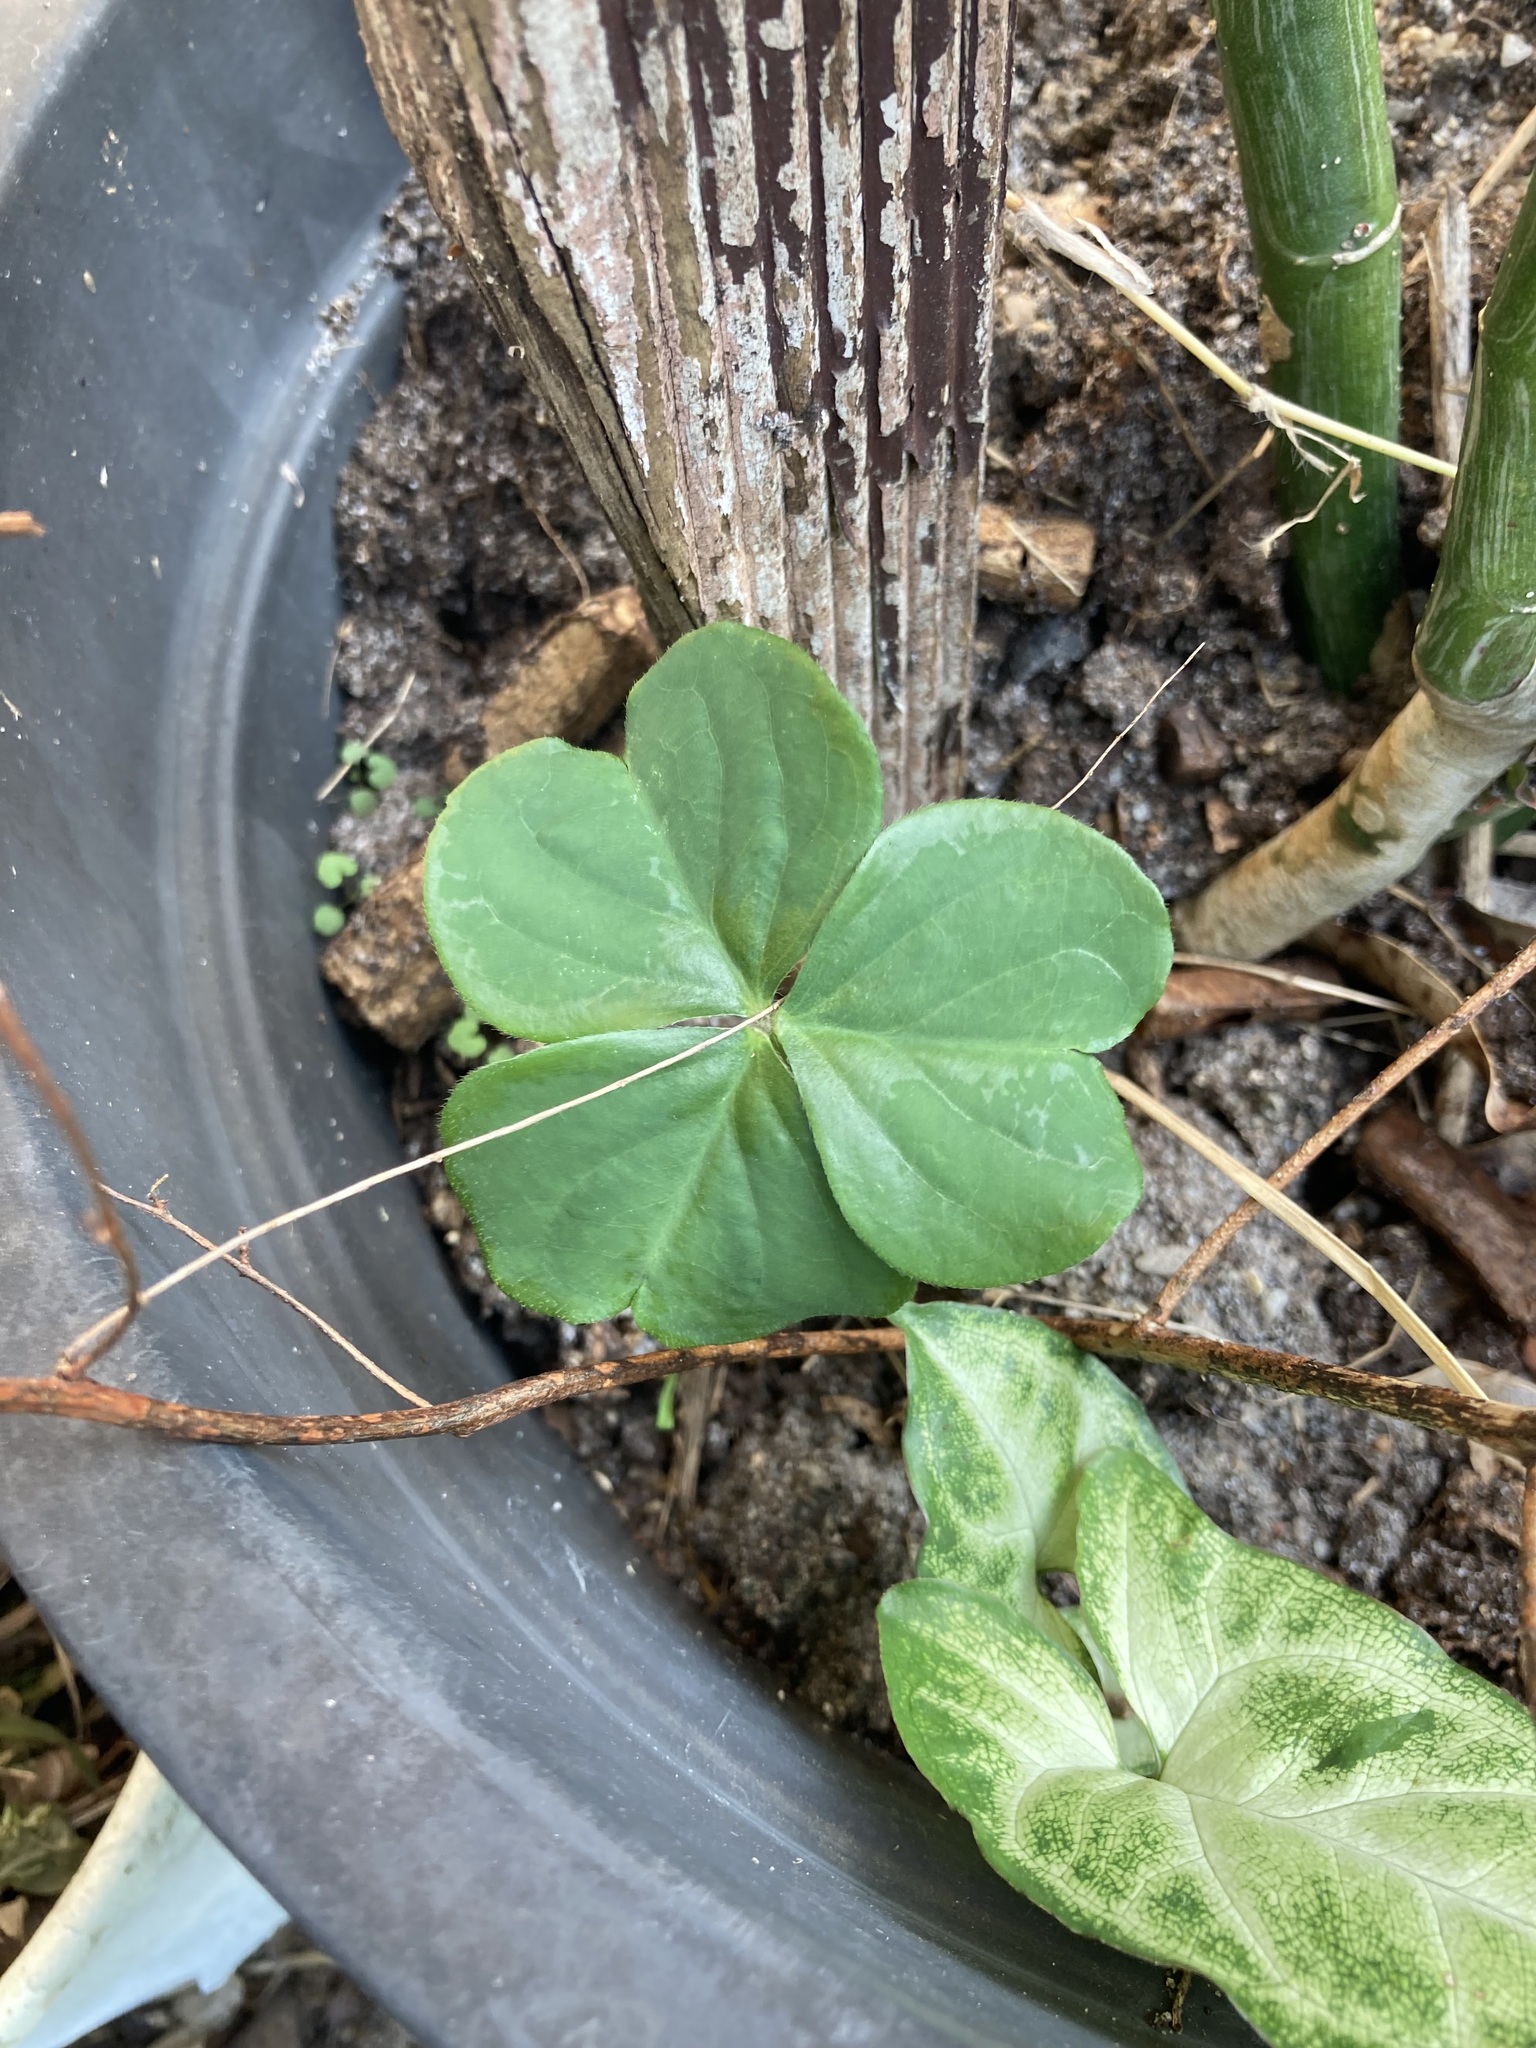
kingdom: Plantae
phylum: Tracheophyta
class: Magnoliopsida
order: Oxalidales
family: Oxalidaceae
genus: Oxalis
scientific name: Oxalis debilis
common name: Large-flowered pink-sorrel
